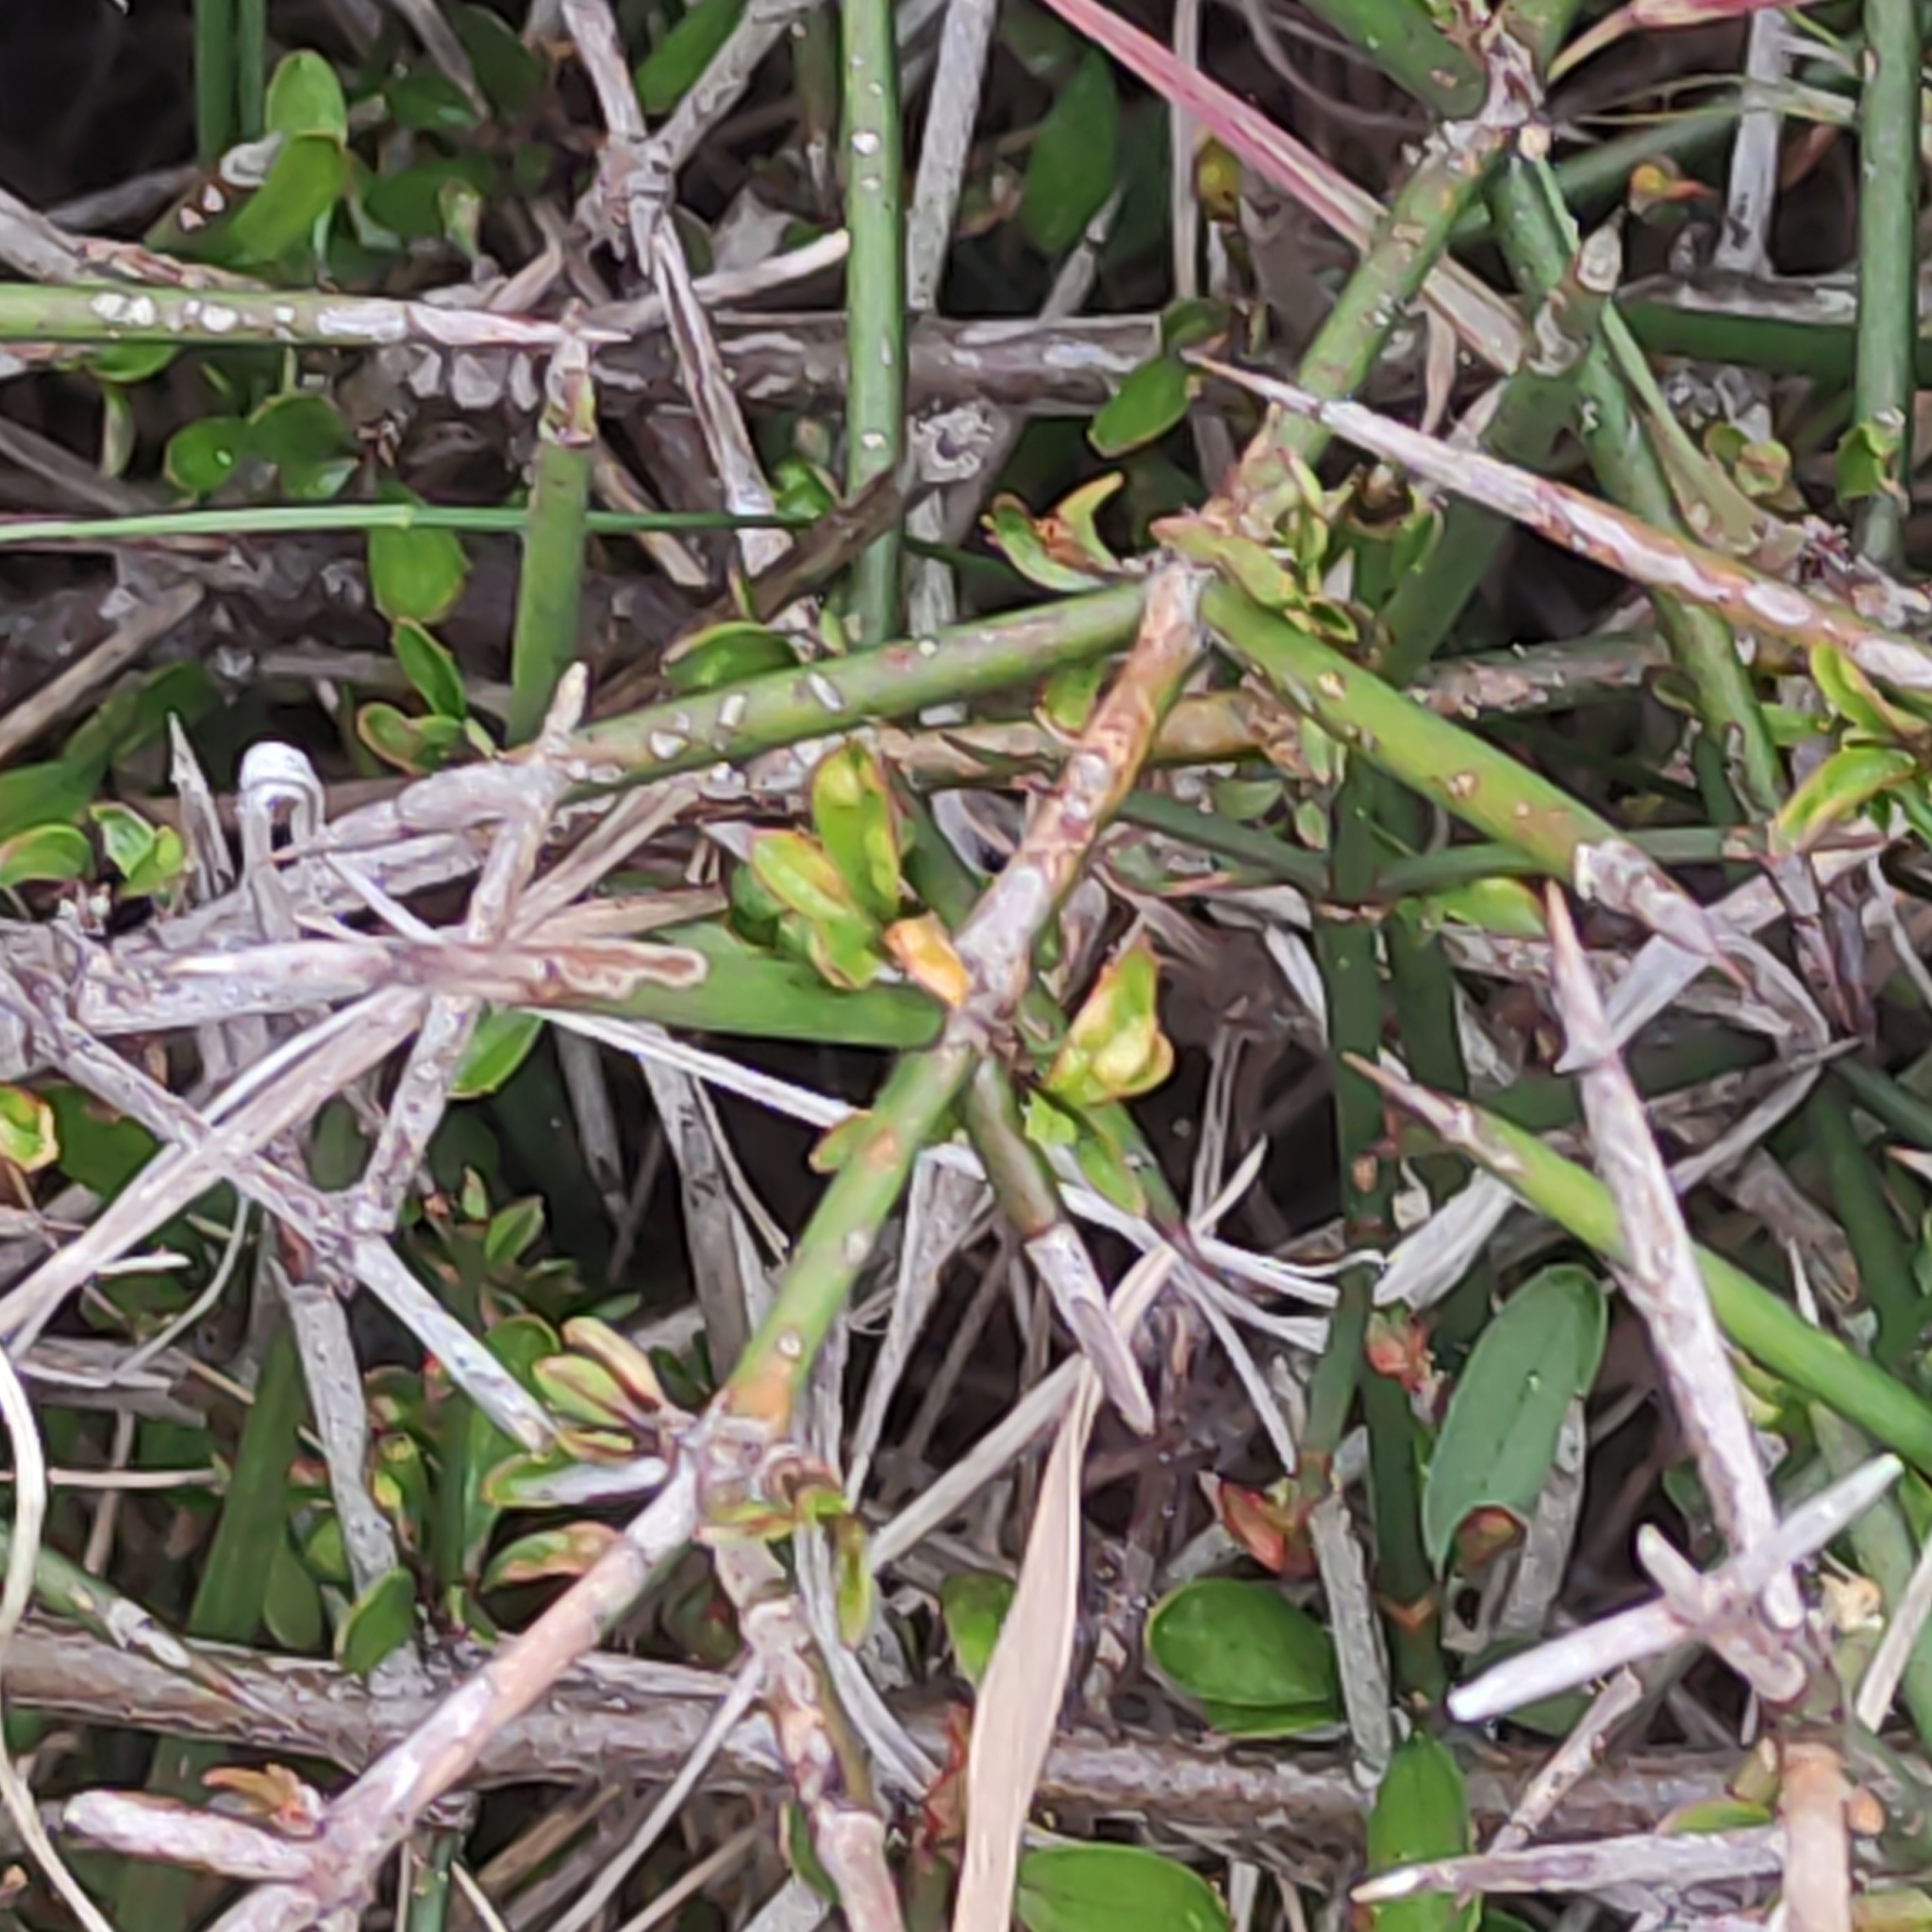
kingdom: Plantae
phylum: Tracheophyta
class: Magnoliopsida
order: Rosales
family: Rhamnaceae
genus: Discaria
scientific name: Discaria toumatou
